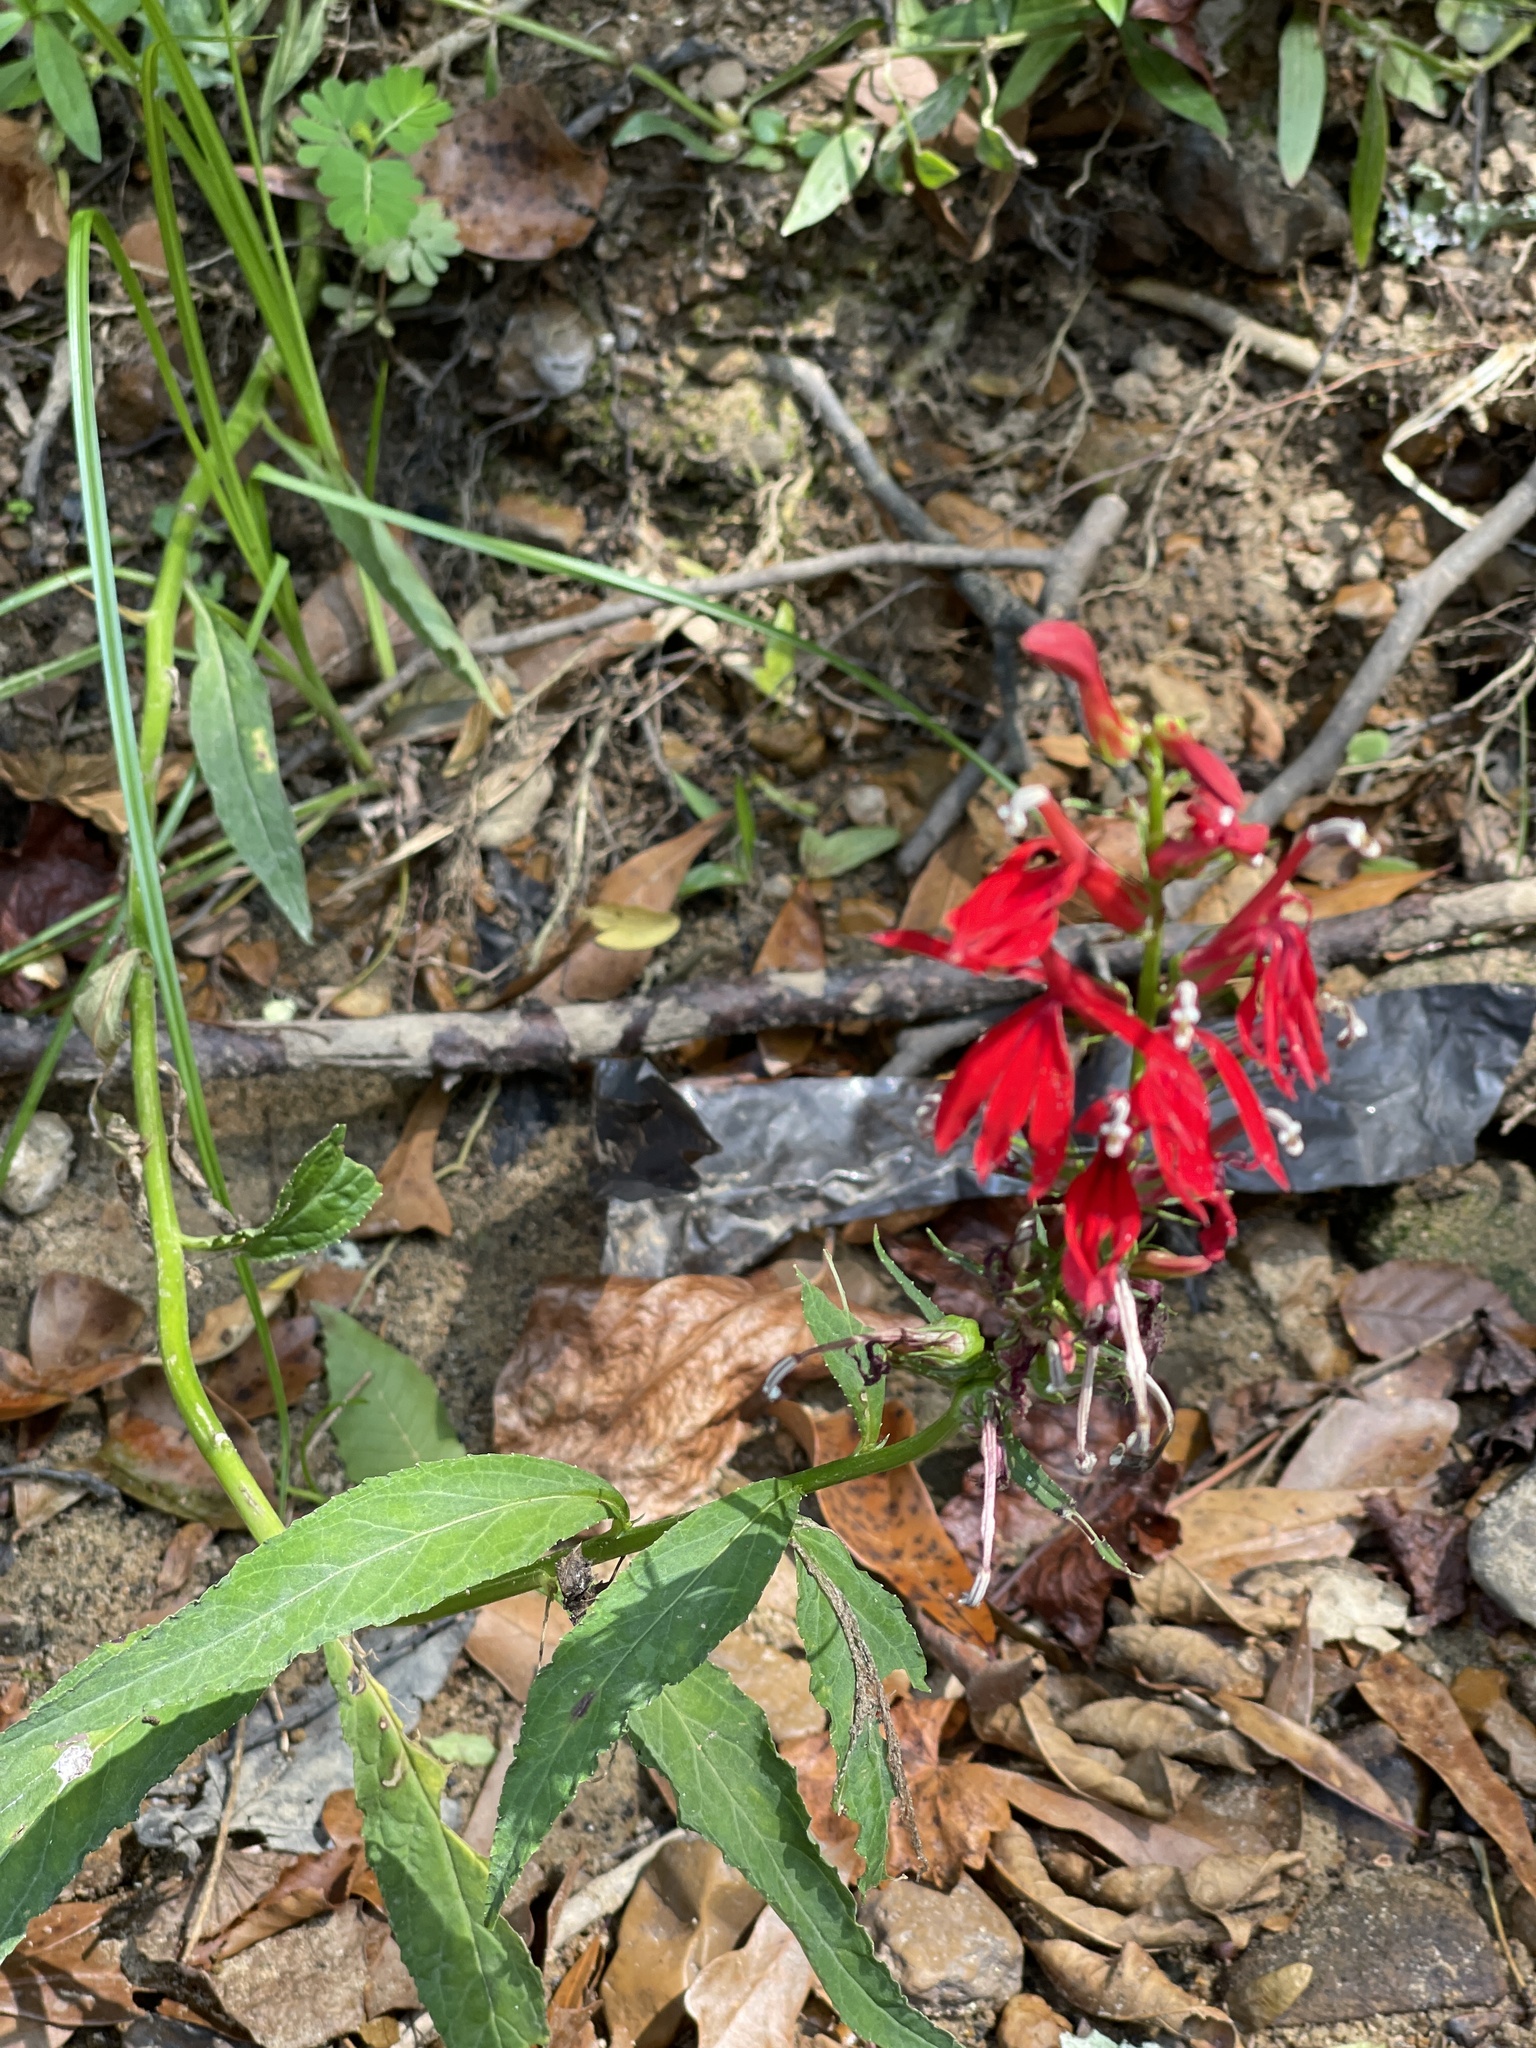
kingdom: Plantae
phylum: Tracheophyta
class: Magnoliopsida
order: Asterales
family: Campanulaceae
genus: Lobelia
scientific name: Lobelia cardinalis
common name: Cardinal flower
